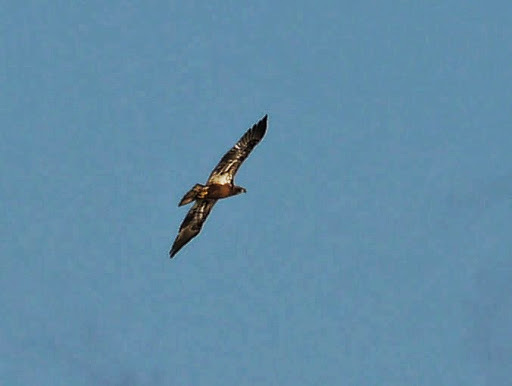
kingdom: Animalia
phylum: Chordata
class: Aves
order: Accipitriformes
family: Accipitridae
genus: Haliaeetus
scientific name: Haliaeetus leucocephalus
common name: Bald eagle
